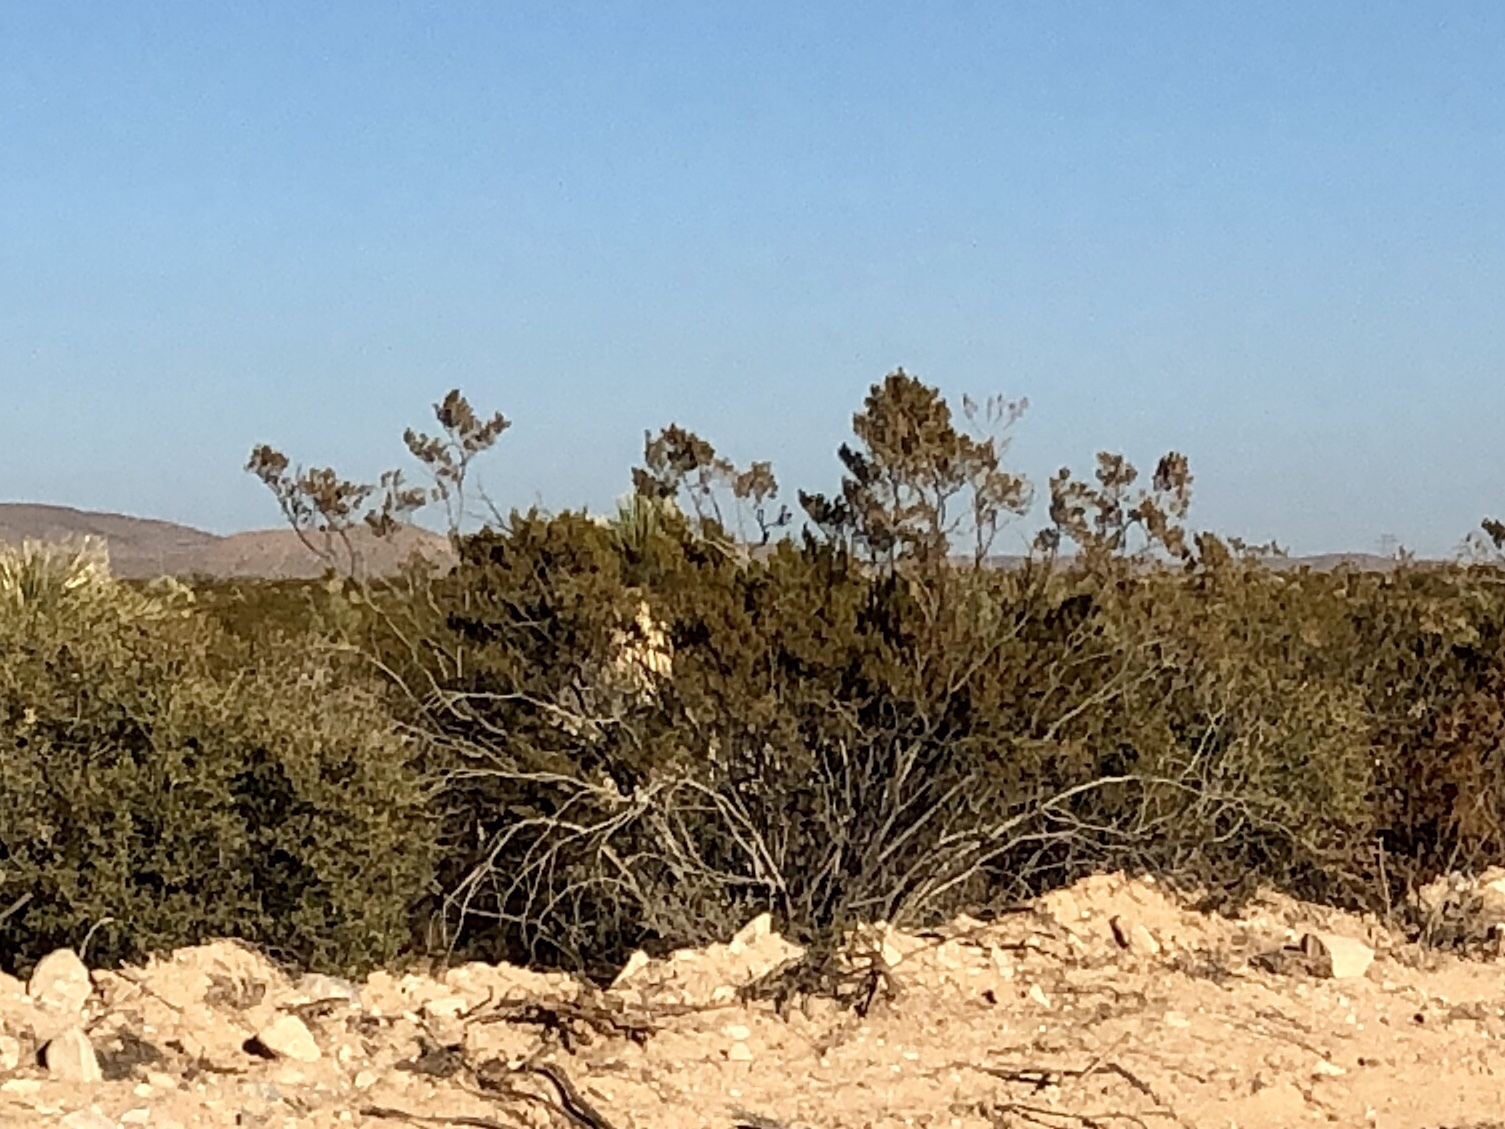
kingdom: Plantae
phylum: Tracheophyta
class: Magnoliopsida
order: Zygophyllales
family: Zygophyllaceae
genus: Larrea
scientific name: Larrea tridentata
